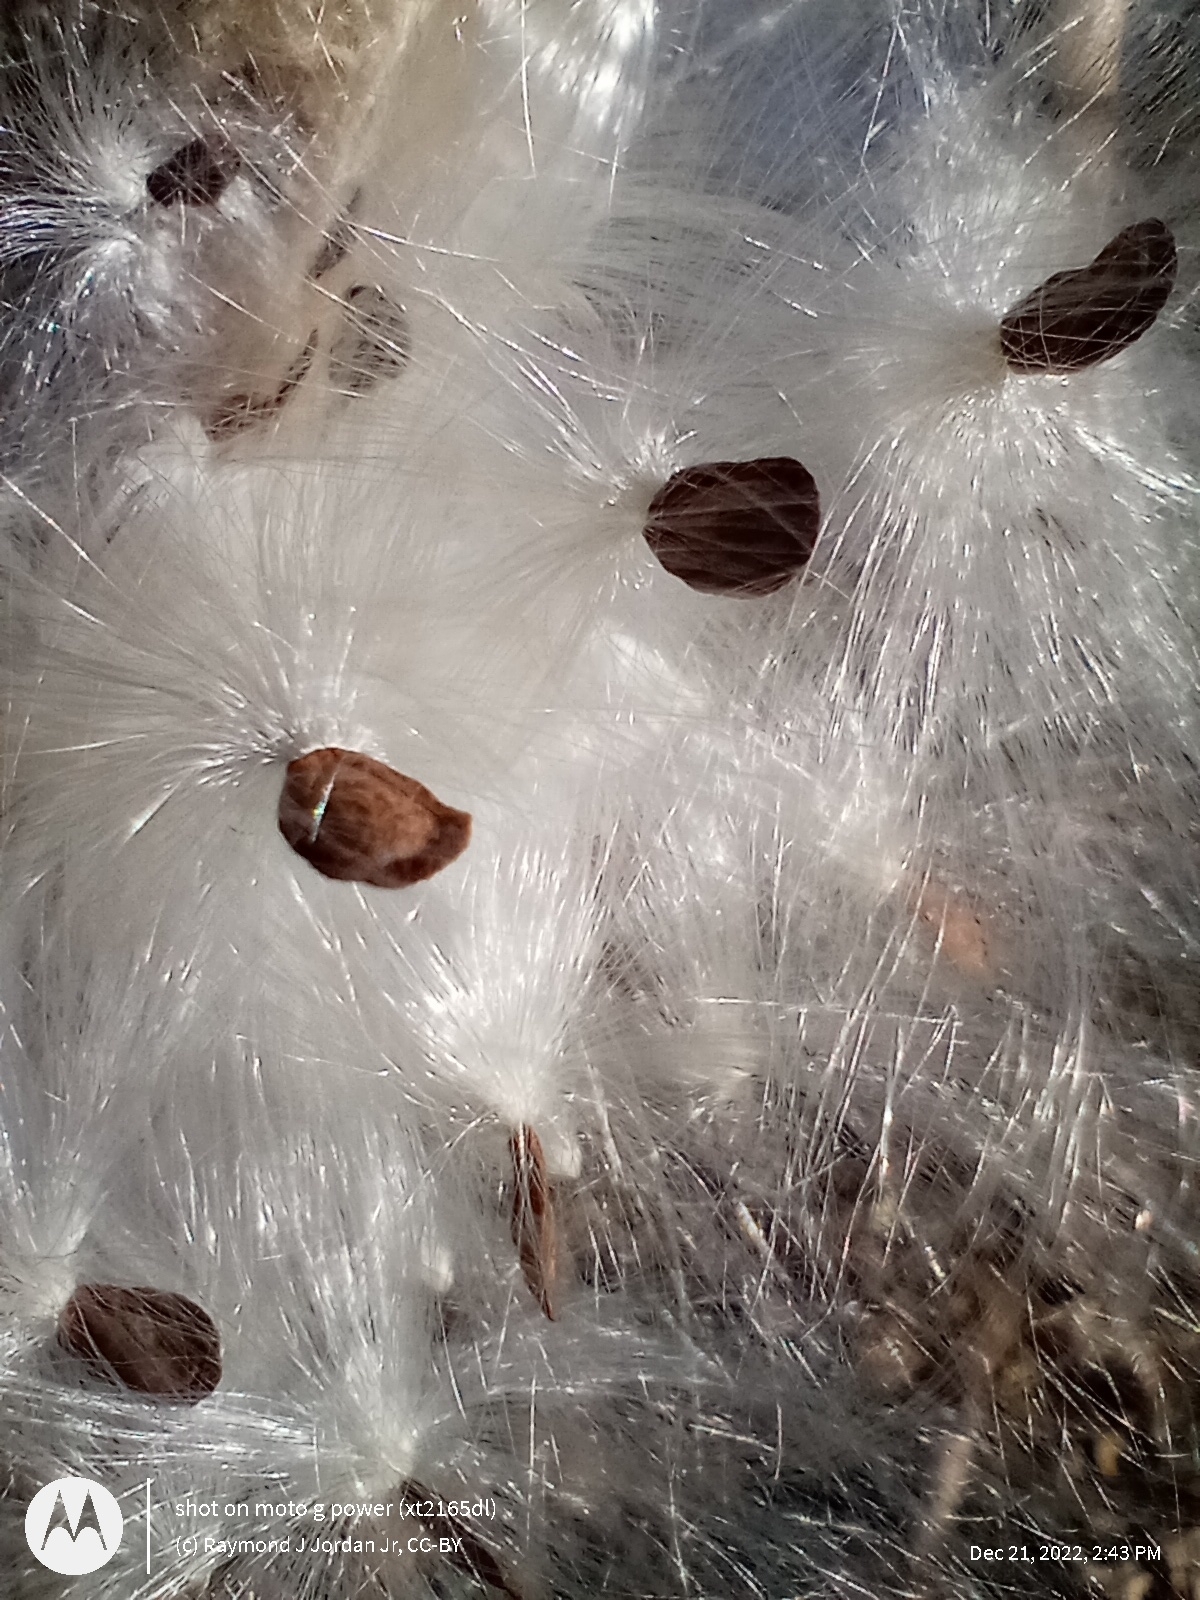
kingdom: Plantae
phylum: Tracheophyta
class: Magnoliopsida
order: Gentianales
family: Apocynaceae
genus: Asclepias
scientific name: Asclepias syriaca
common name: Common milkweed
